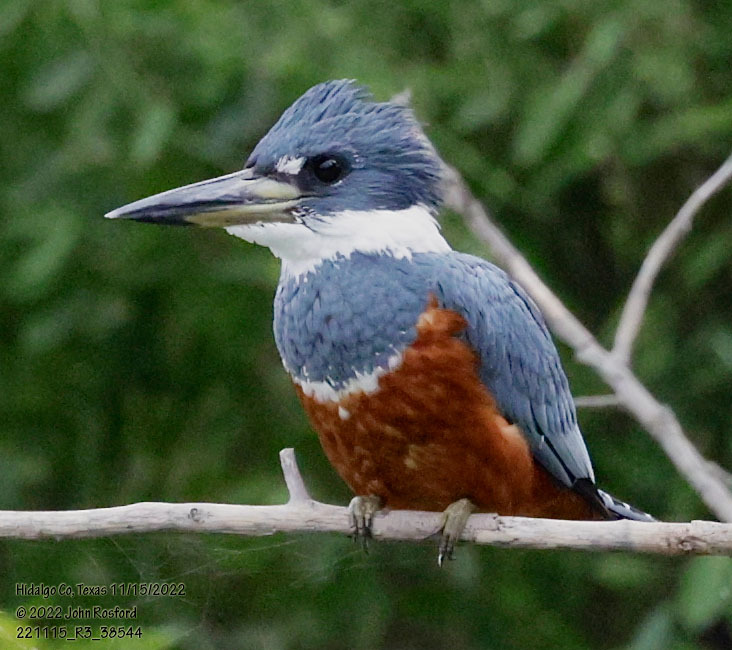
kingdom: Animalia
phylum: Chordata
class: Aves
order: Coraciiformes
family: Alcedinidae
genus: Megaceryle
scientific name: Megaceryle torquata
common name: Ringed kingfisher
